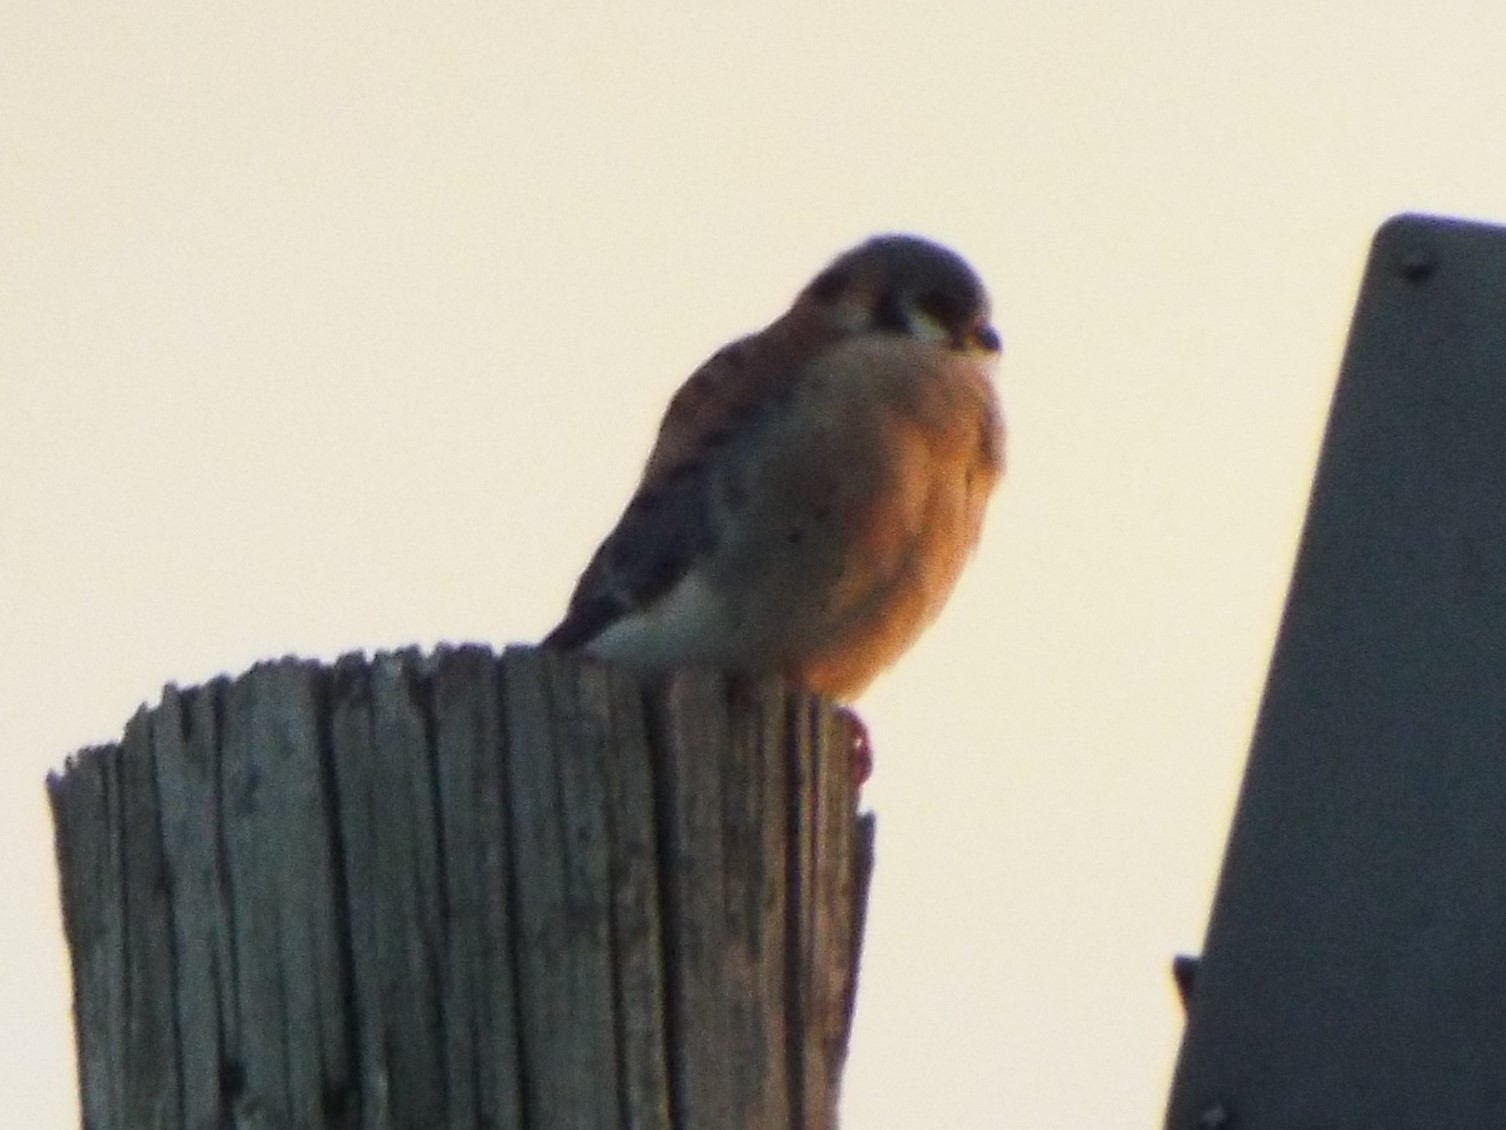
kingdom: Animalia
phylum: Chordata
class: Aves
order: Falconiformes
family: Falconidae
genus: Falco
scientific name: Falco sparverius
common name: American kestrel
